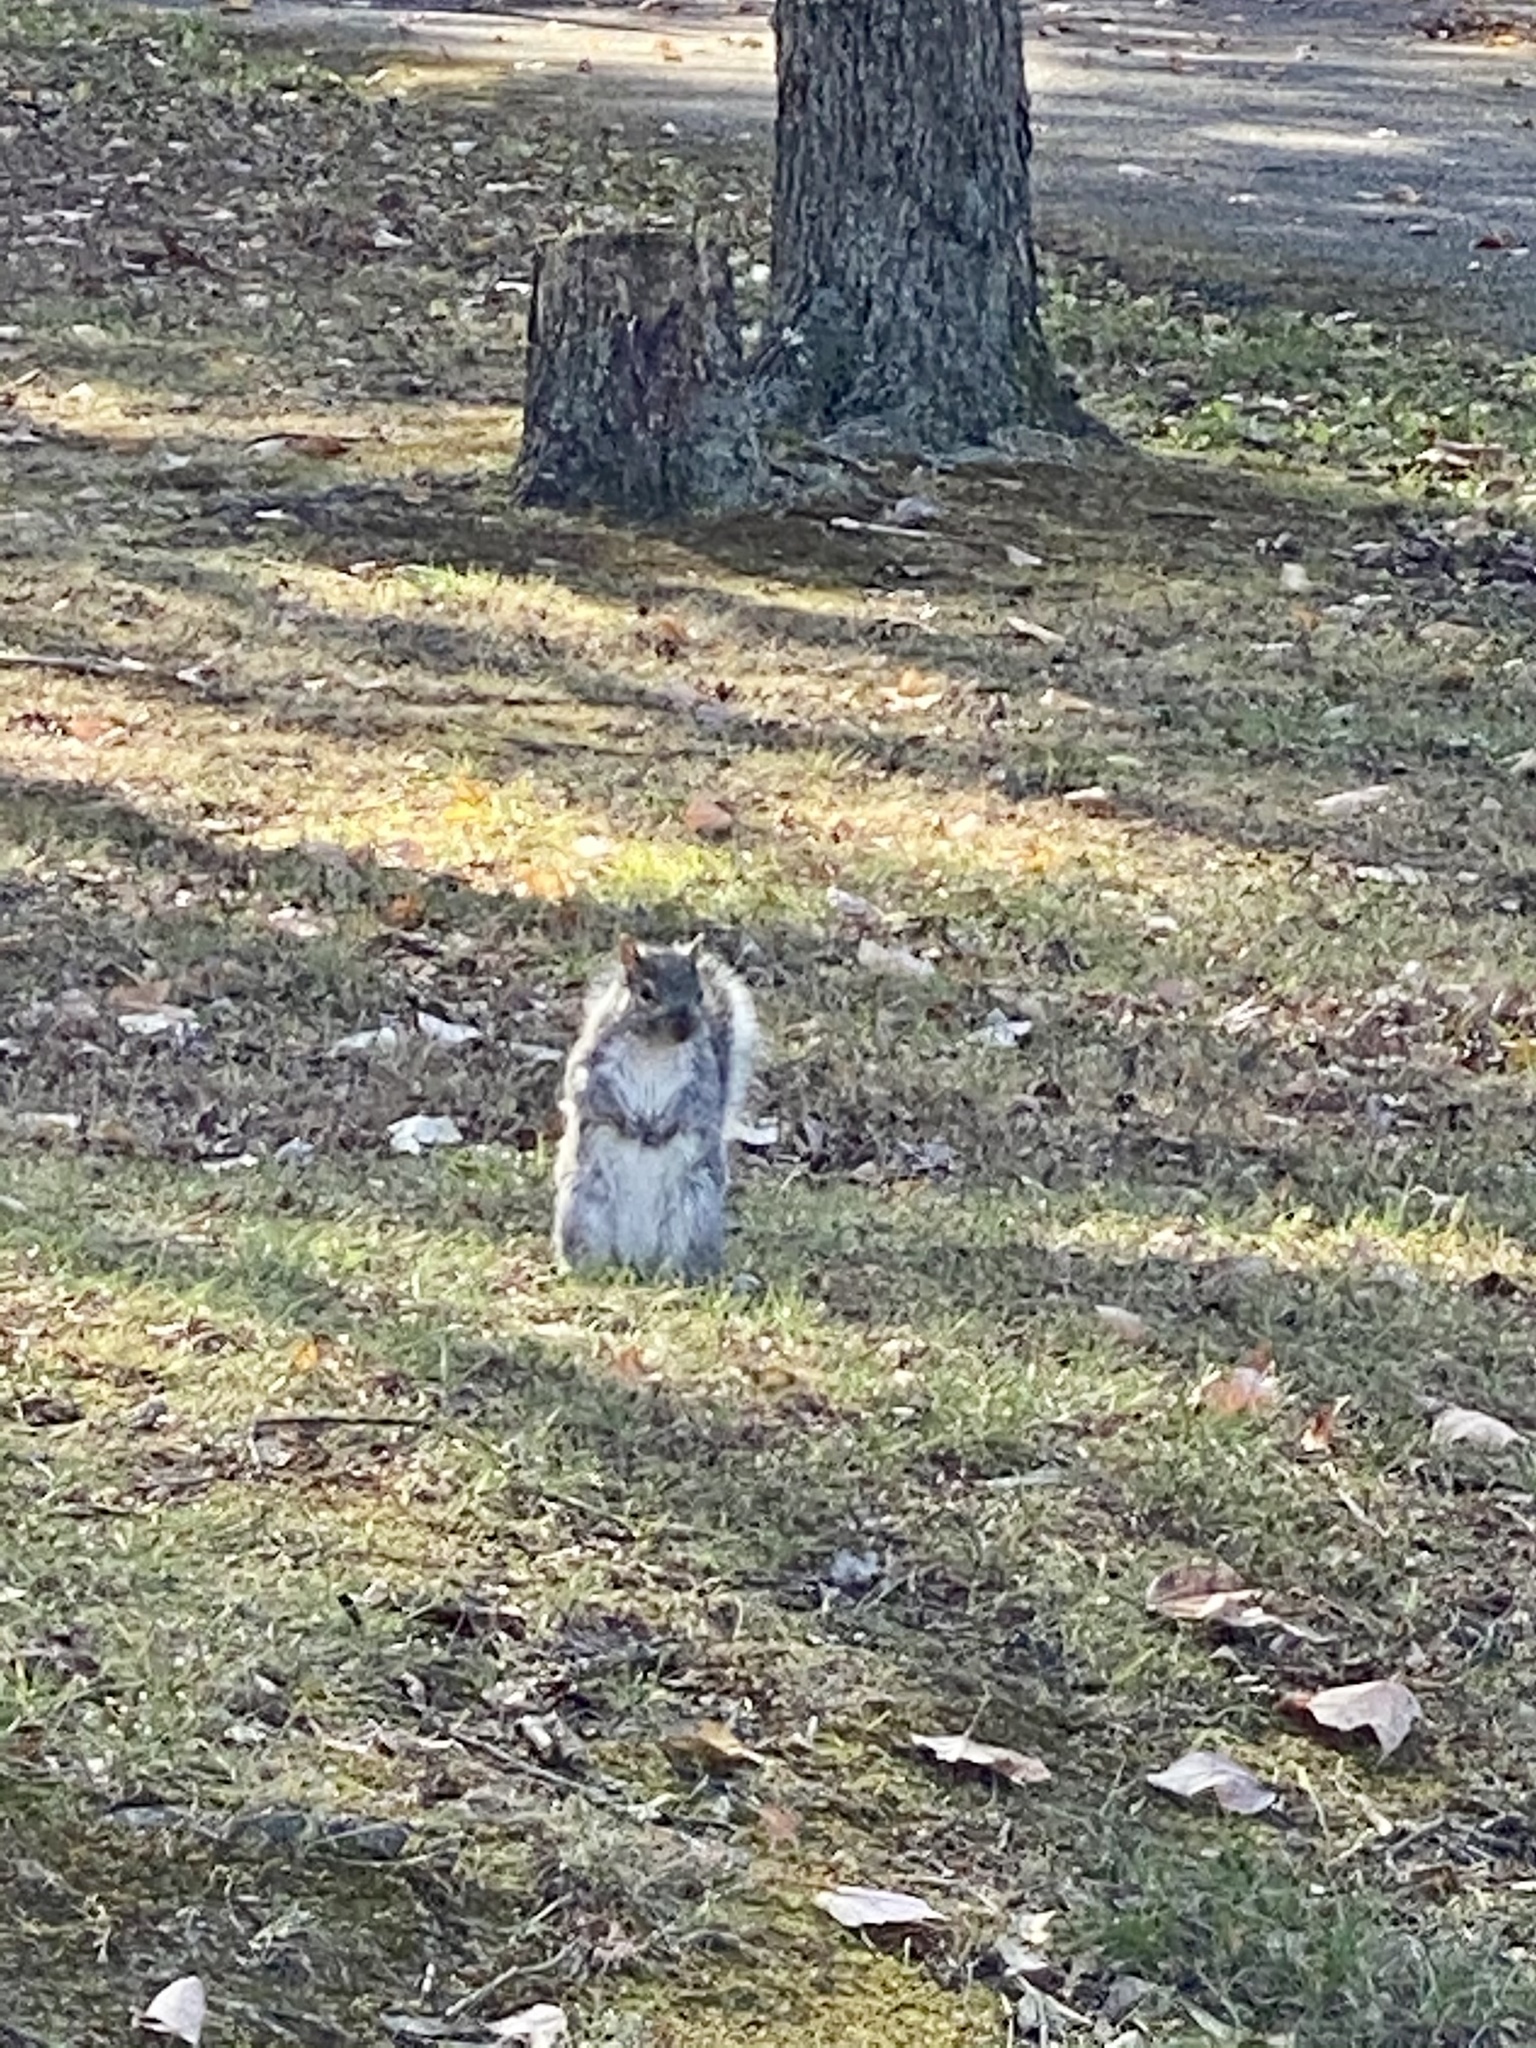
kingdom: Animalia
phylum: Chordata
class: Mammalia
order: Rodentia
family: Sciuridae
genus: Sciurus
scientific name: Sciurus carolinensis
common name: Eastern gray squirrel
